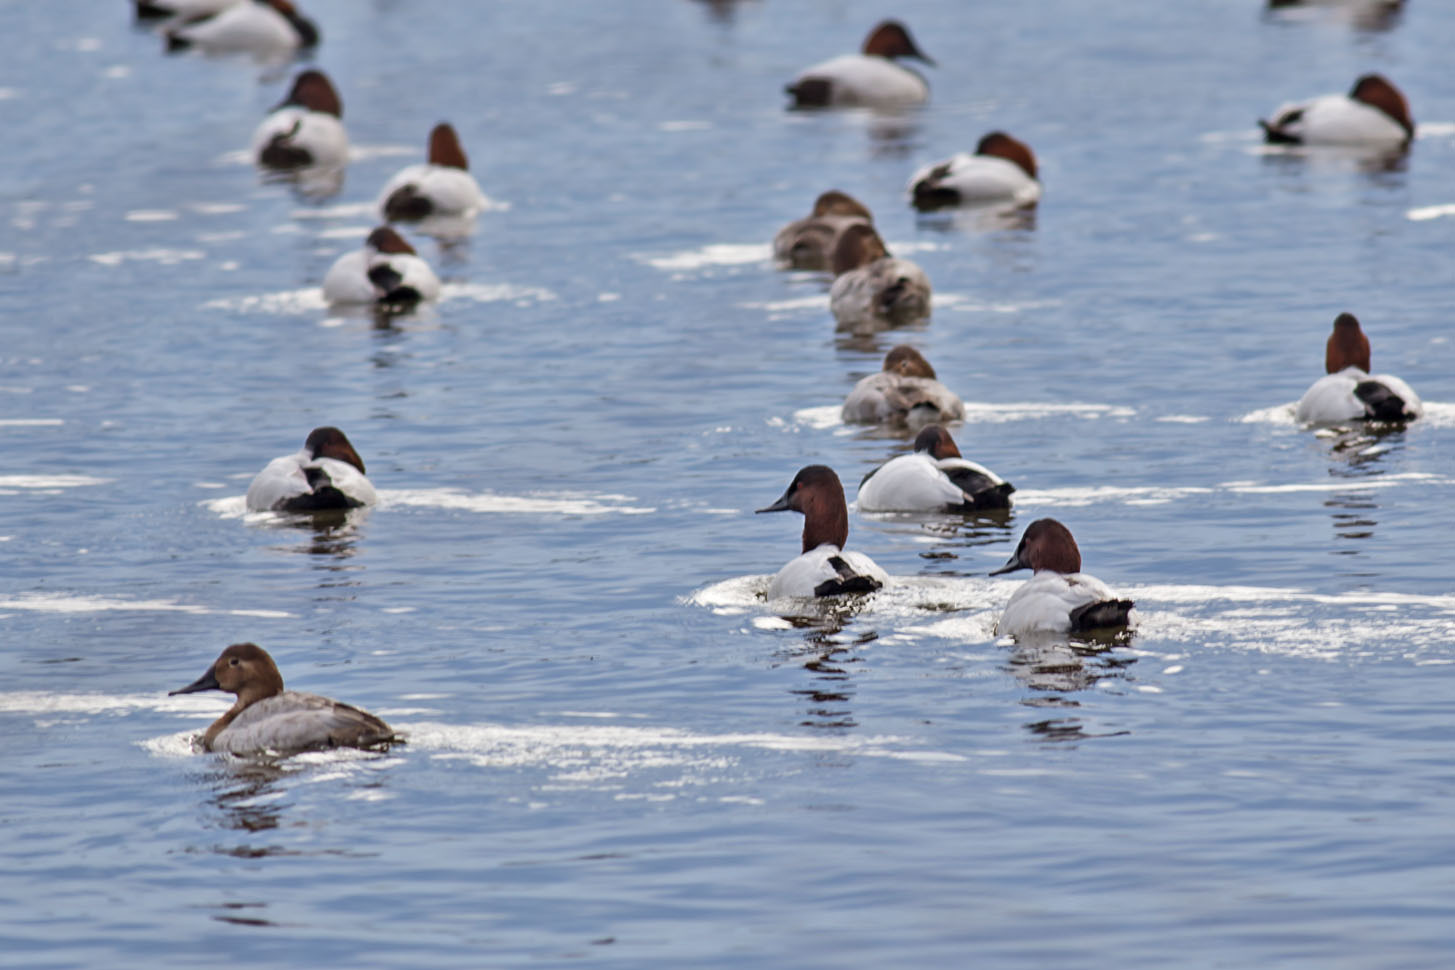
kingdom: Animalia
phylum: Chordata
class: Aves
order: Anseriformes
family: Anatidae
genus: Aythya
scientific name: Aythya valisineria
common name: Canvasback
